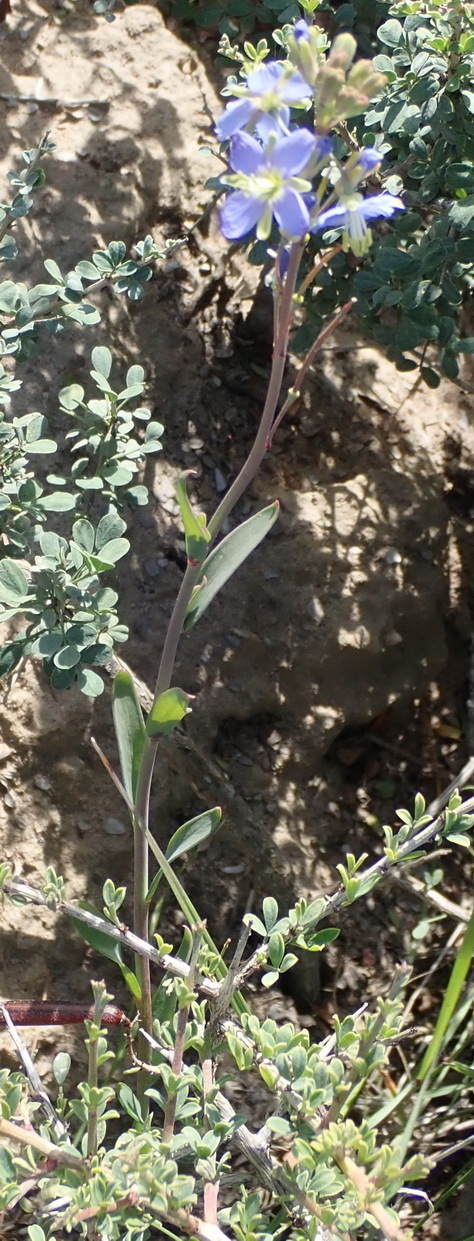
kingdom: Plantae
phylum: Tracheophyta
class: Magnoliopsida
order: Brassicales
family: Brassicaceae
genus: Heliophila
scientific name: Heliophila linearis
